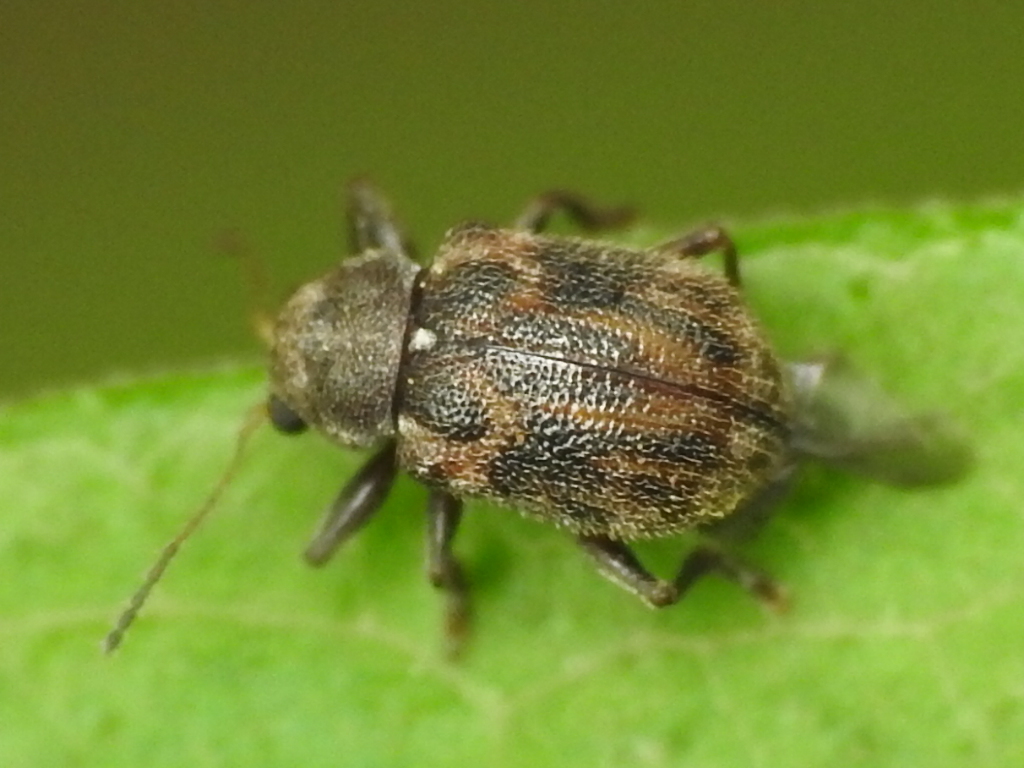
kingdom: Animalia
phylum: Arthropoda
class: Insecta
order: Coleoptera
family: Chrysomelidae
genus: Xanthonia
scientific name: Xanthonia picturata
